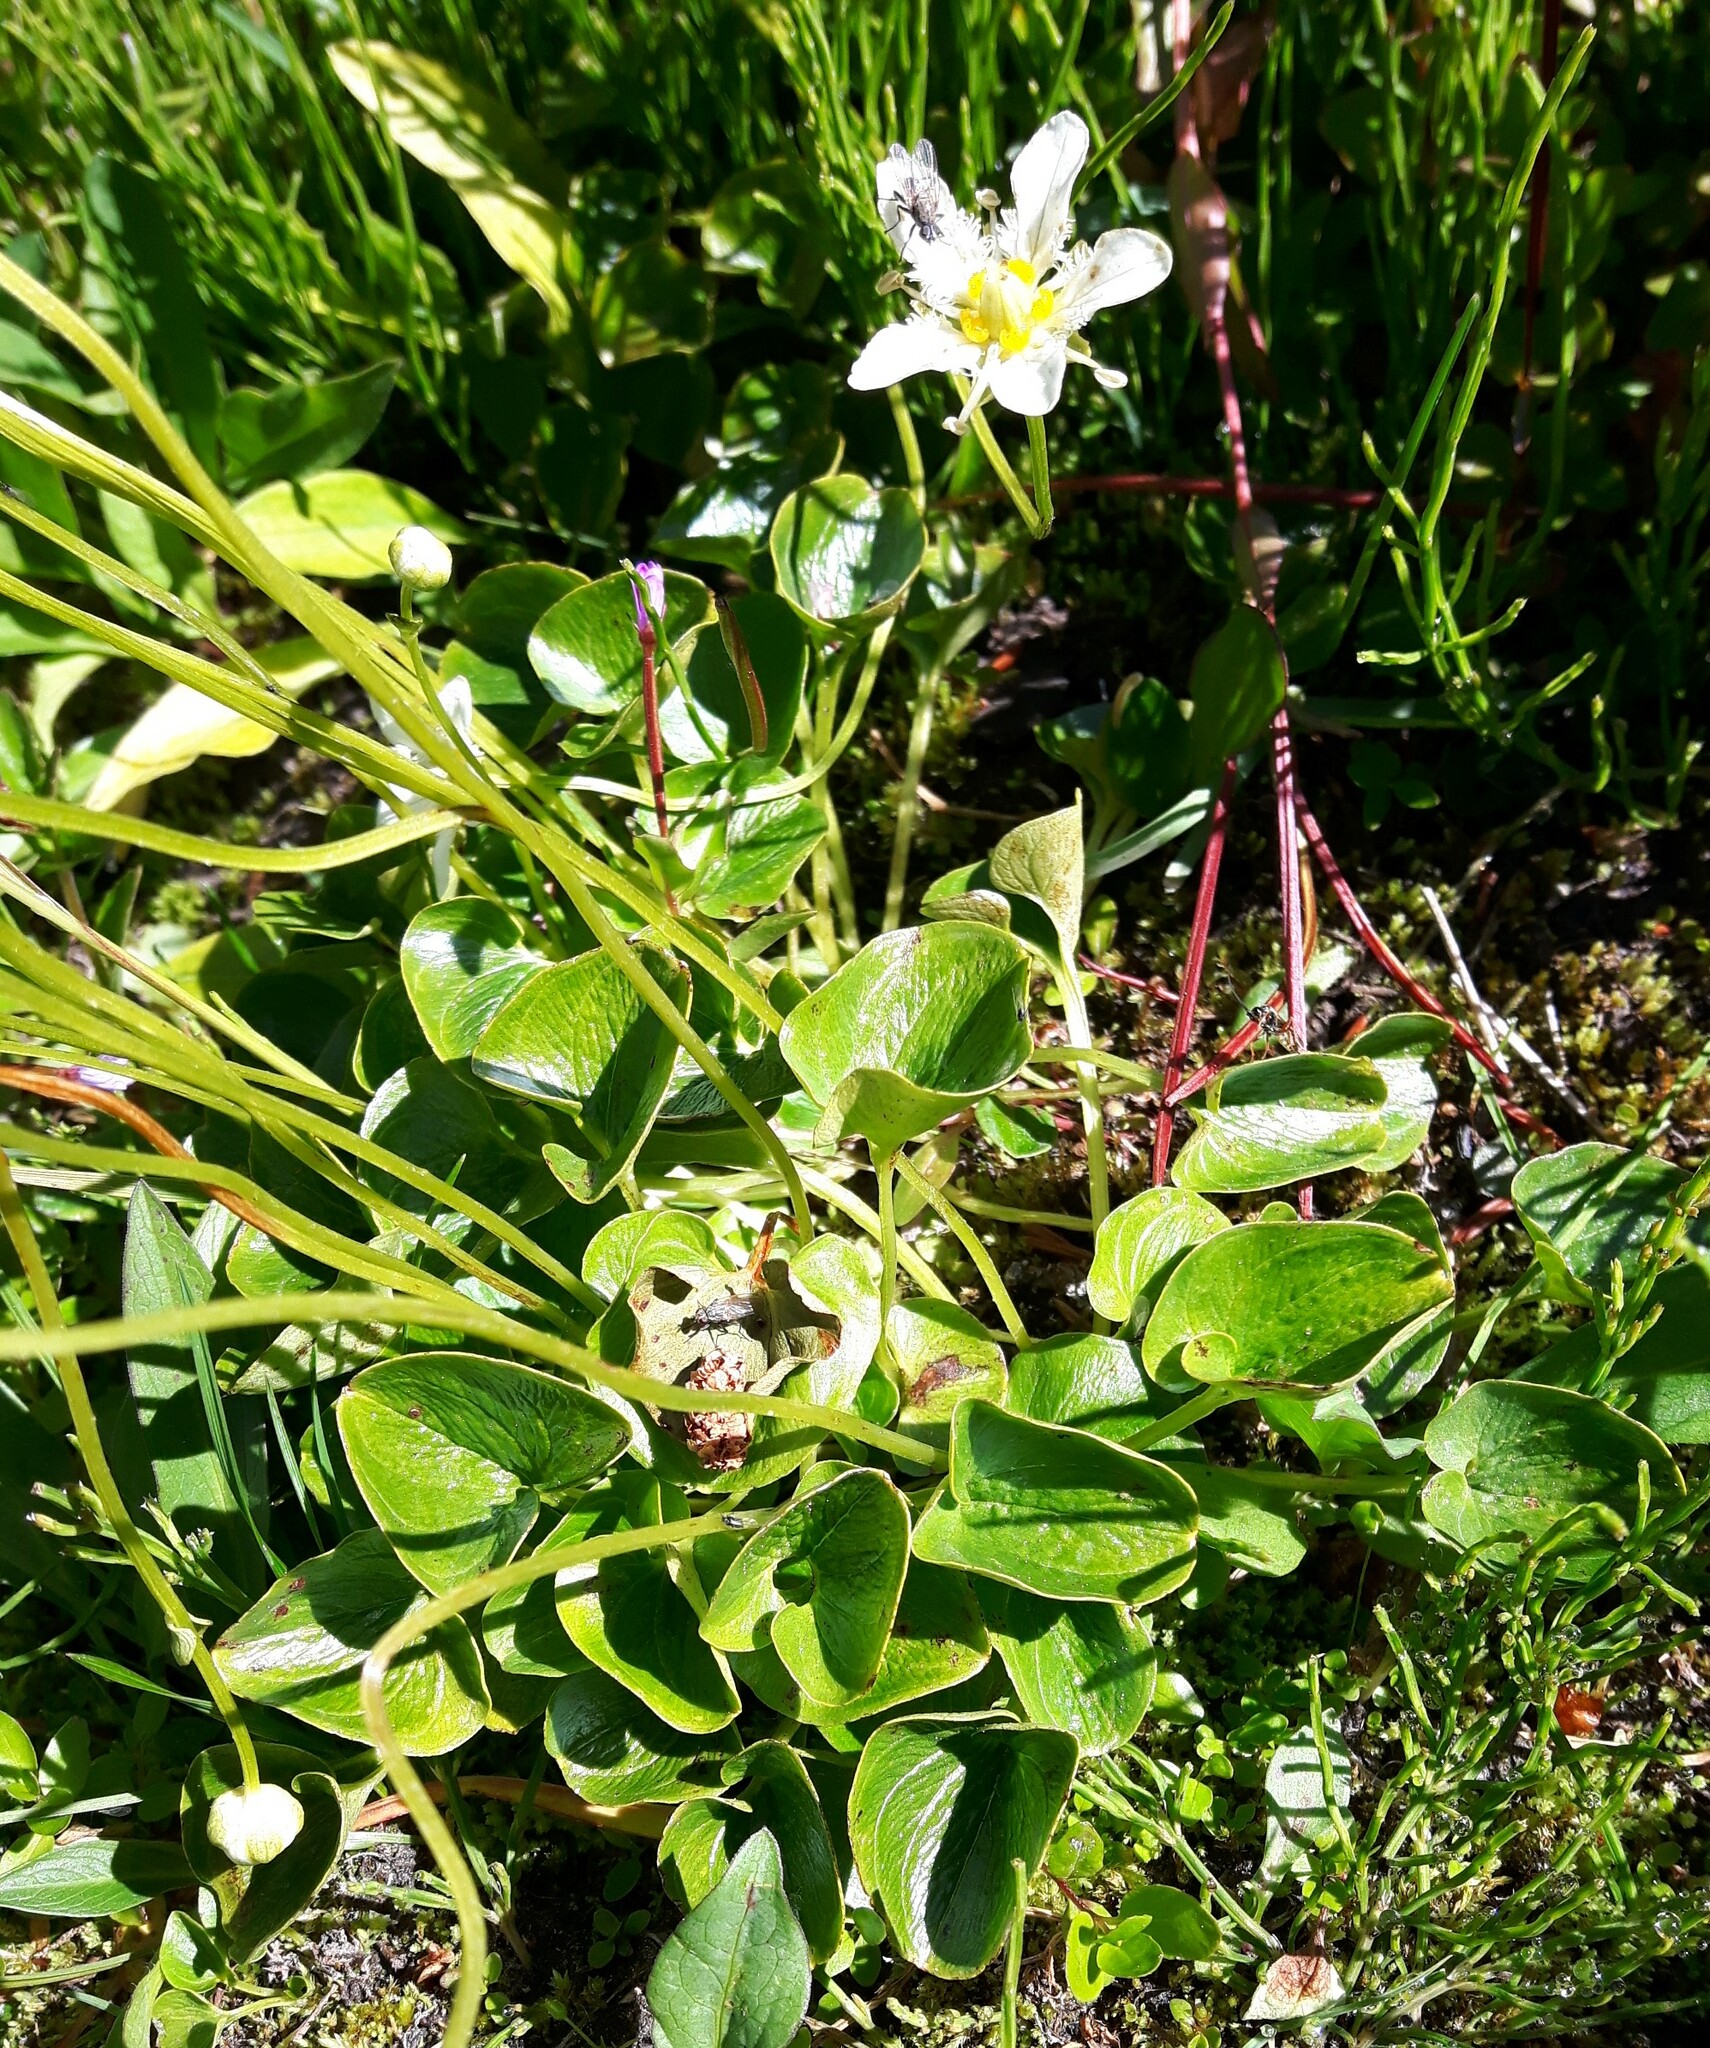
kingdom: Plantae
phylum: Tracheophyta
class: Magnoliopsida
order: Celastrales
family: Parnassiaceae
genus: Parnassia
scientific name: Parnassia fimbriata
